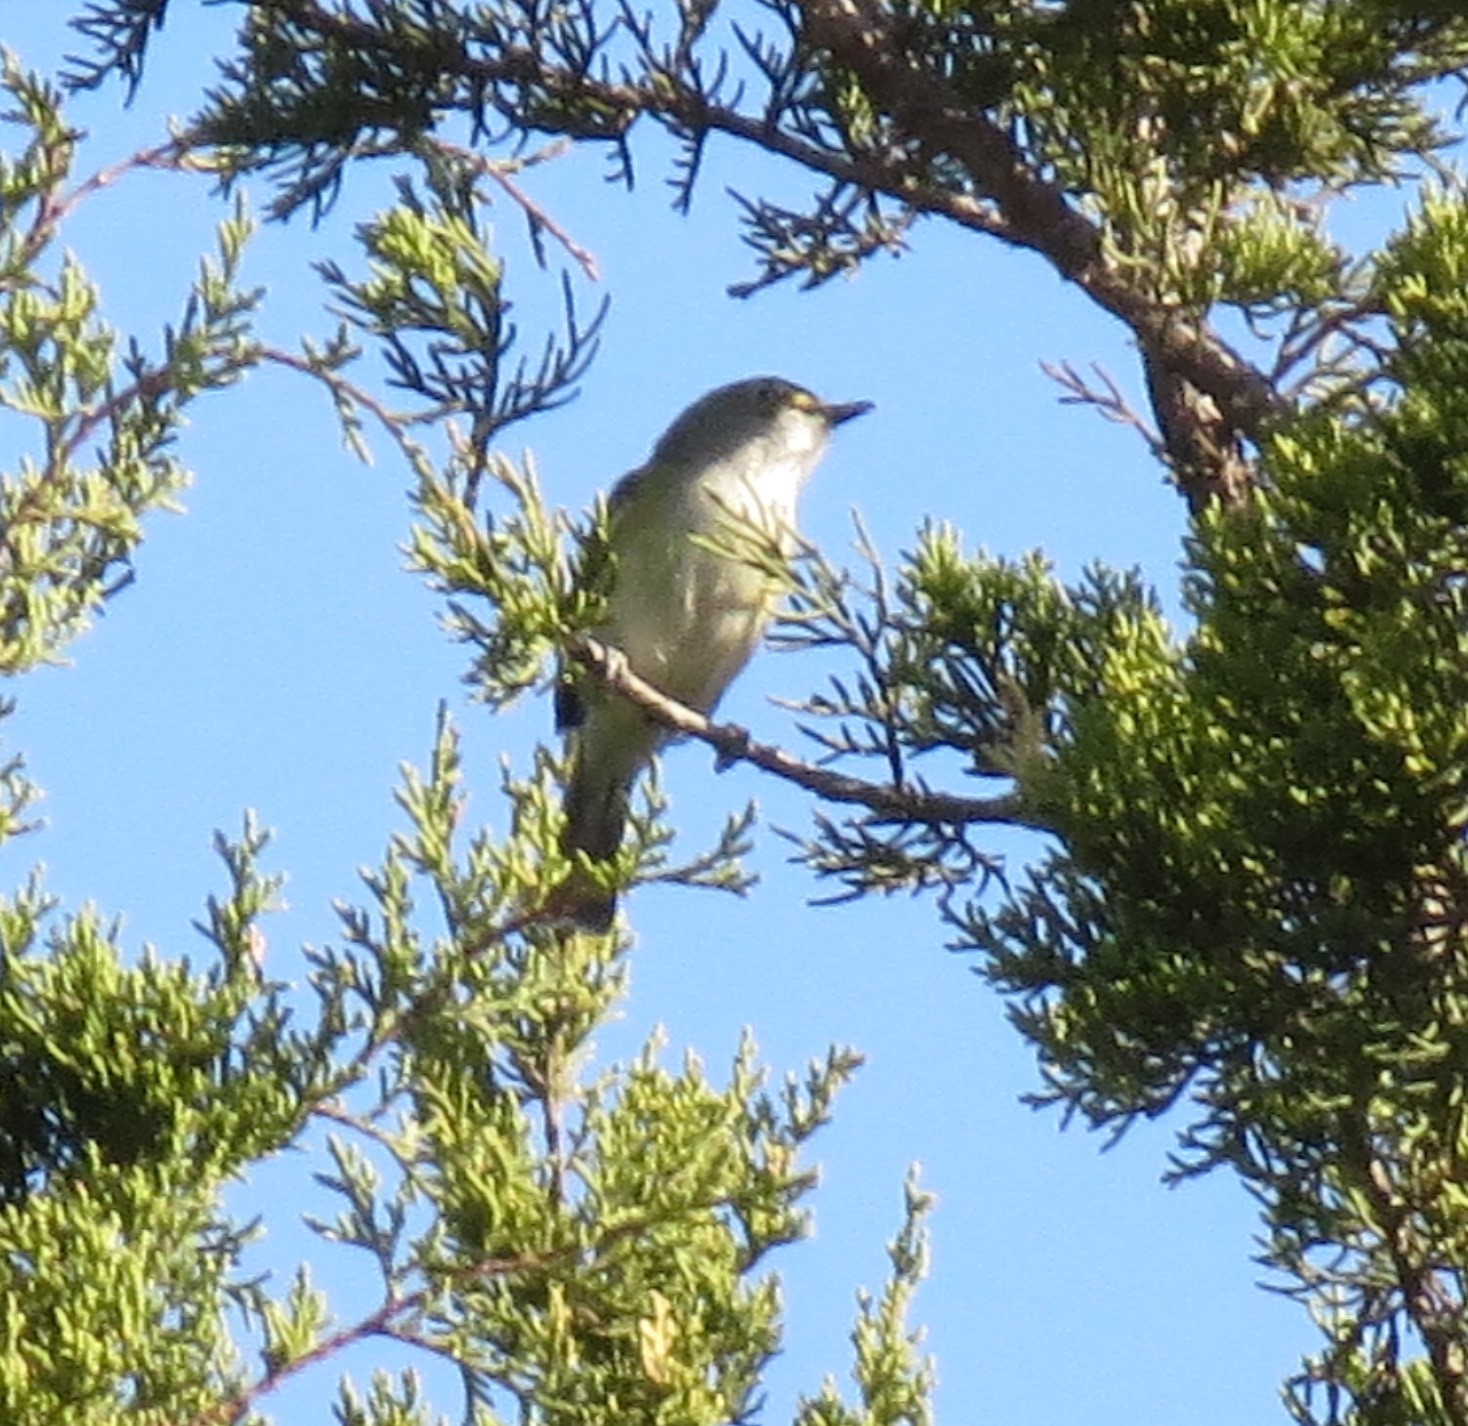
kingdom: Animalia
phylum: Chordata
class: Aves
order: Passeriformes
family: Vireonidae
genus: Vireo
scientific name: Vireo griseus
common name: White-eyed vireo
